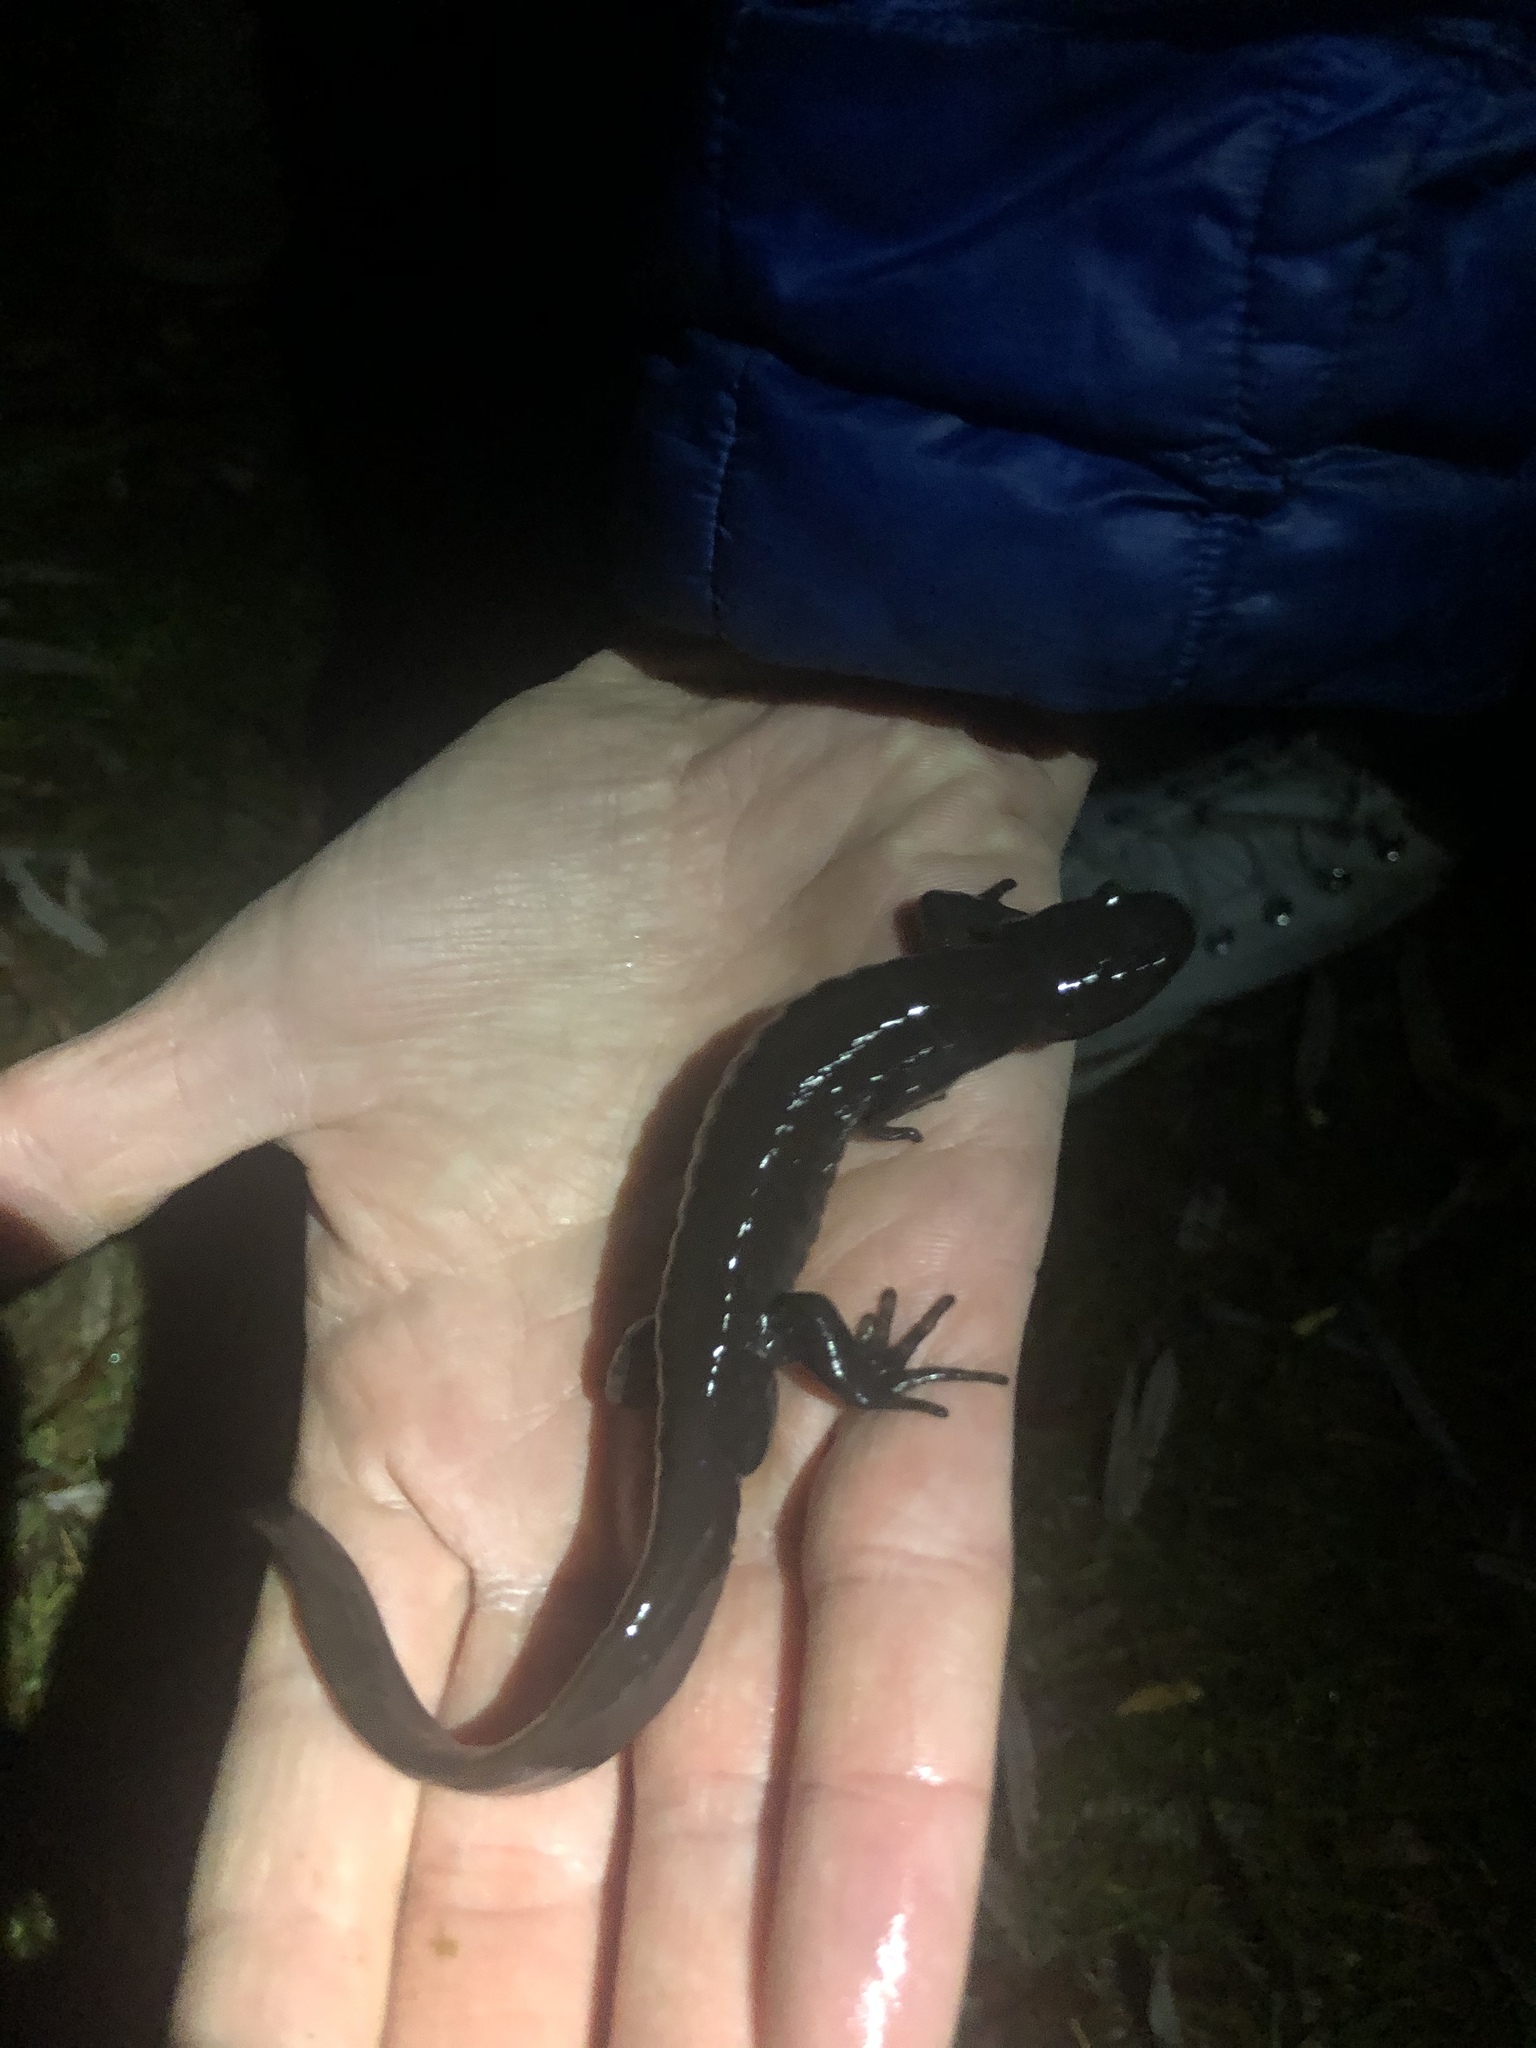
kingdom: Animalia
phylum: Chordata
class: Amphibia
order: Caudata
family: Ambystomatidae
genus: Ambystoma
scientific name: Ambystoma jeffersonianum
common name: Jefferson salamander
